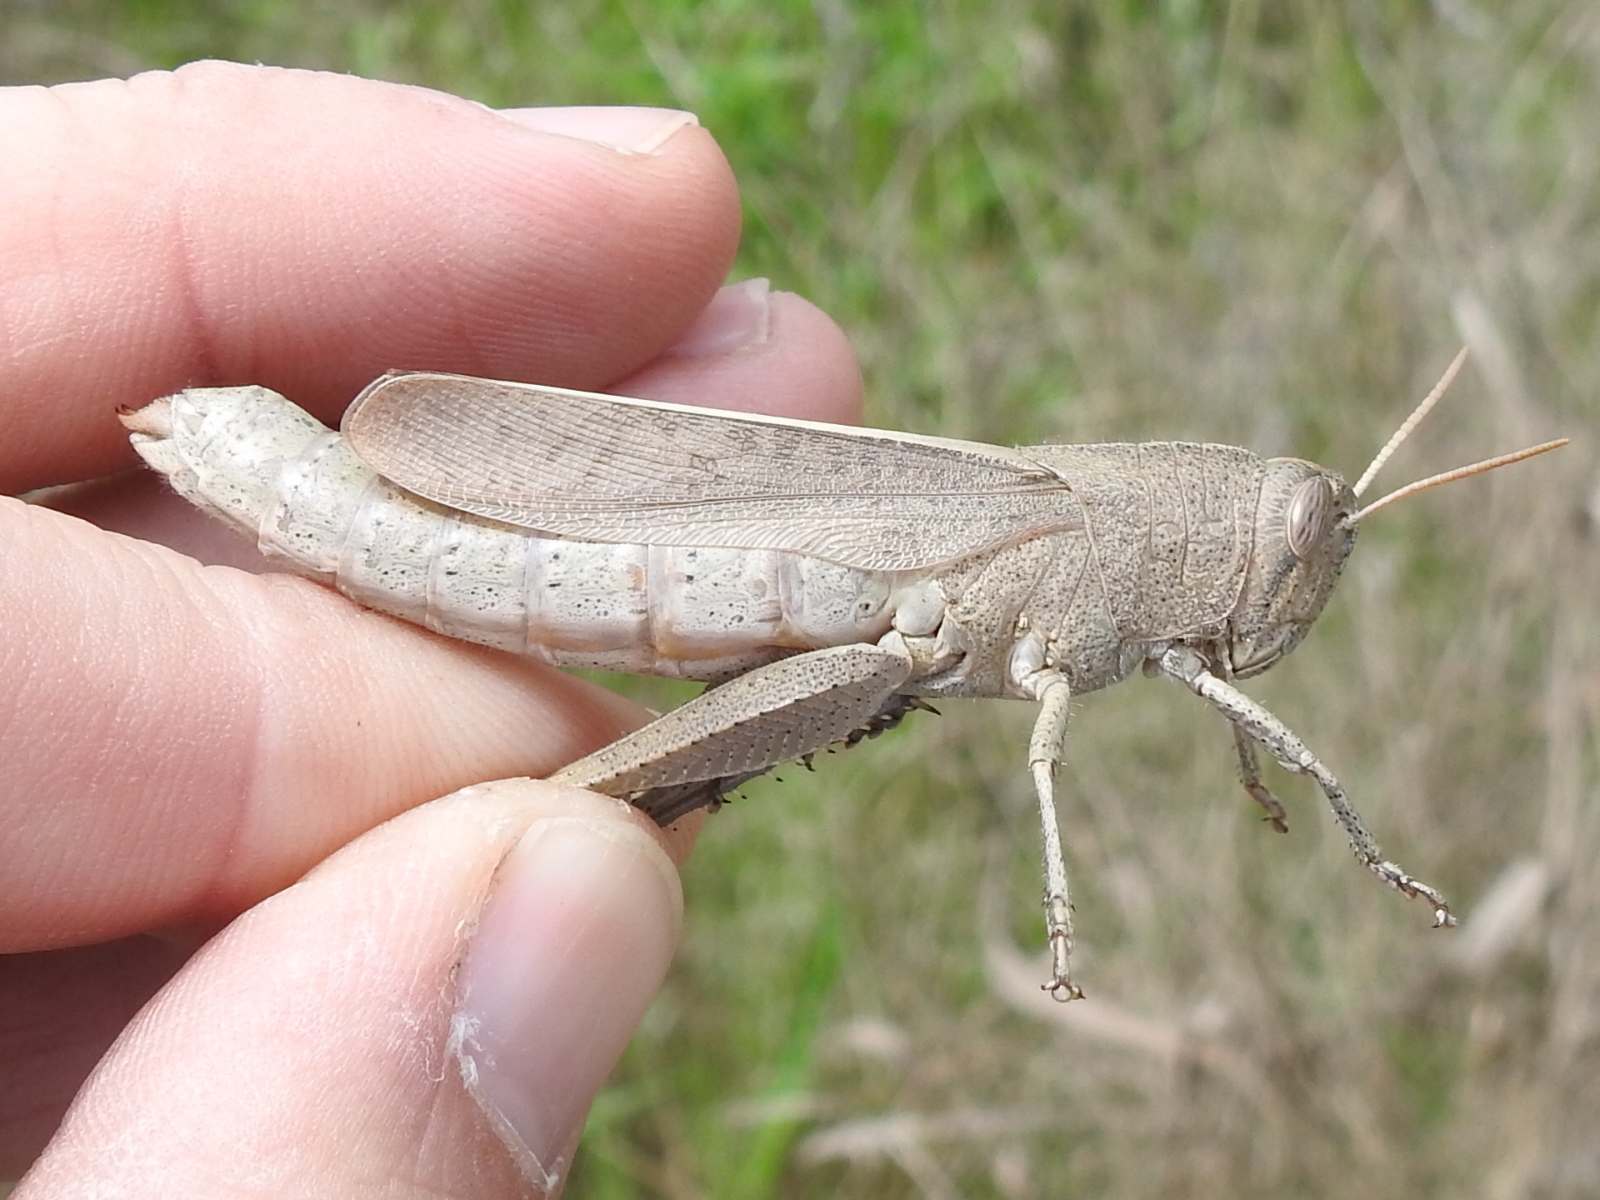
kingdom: Animalia
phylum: Arthropoda
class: Insecta
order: Orthoptera
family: Acrididae
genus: Schistocerca
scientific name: Schistocerca damnifica
